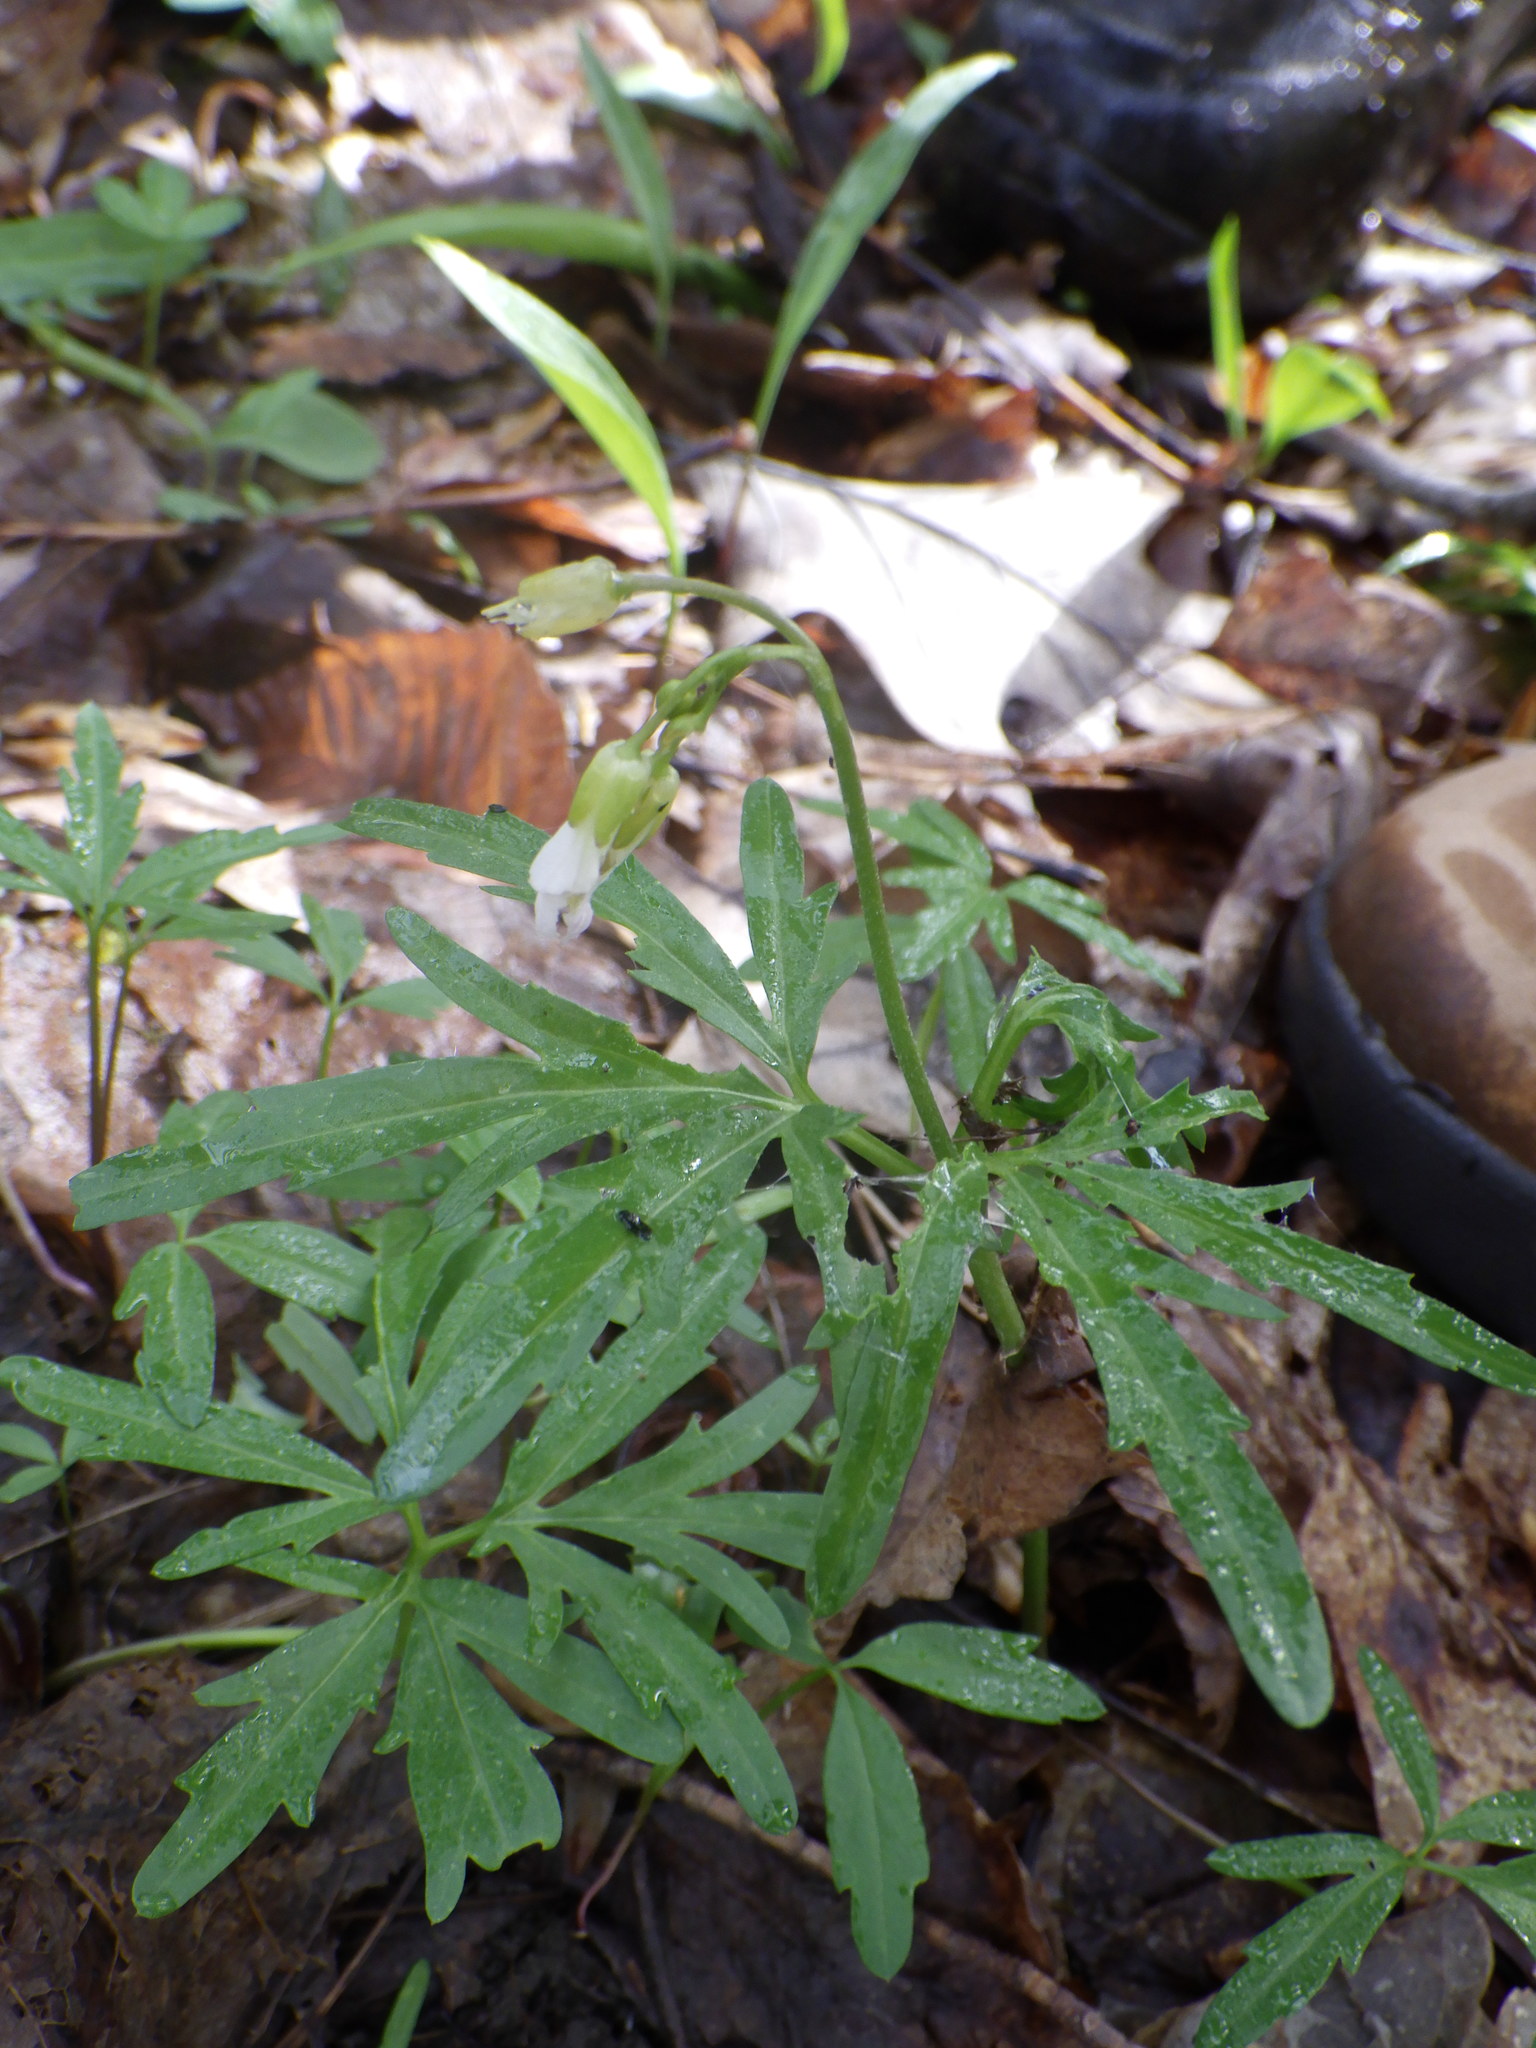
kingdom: Plantae
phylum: Tracheophyta
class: Magnoliopsida
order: Brassicales
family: Brassicaceae
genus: Cardamine
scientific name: Cardamine concatenata
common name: Cut-leaf toothcup
